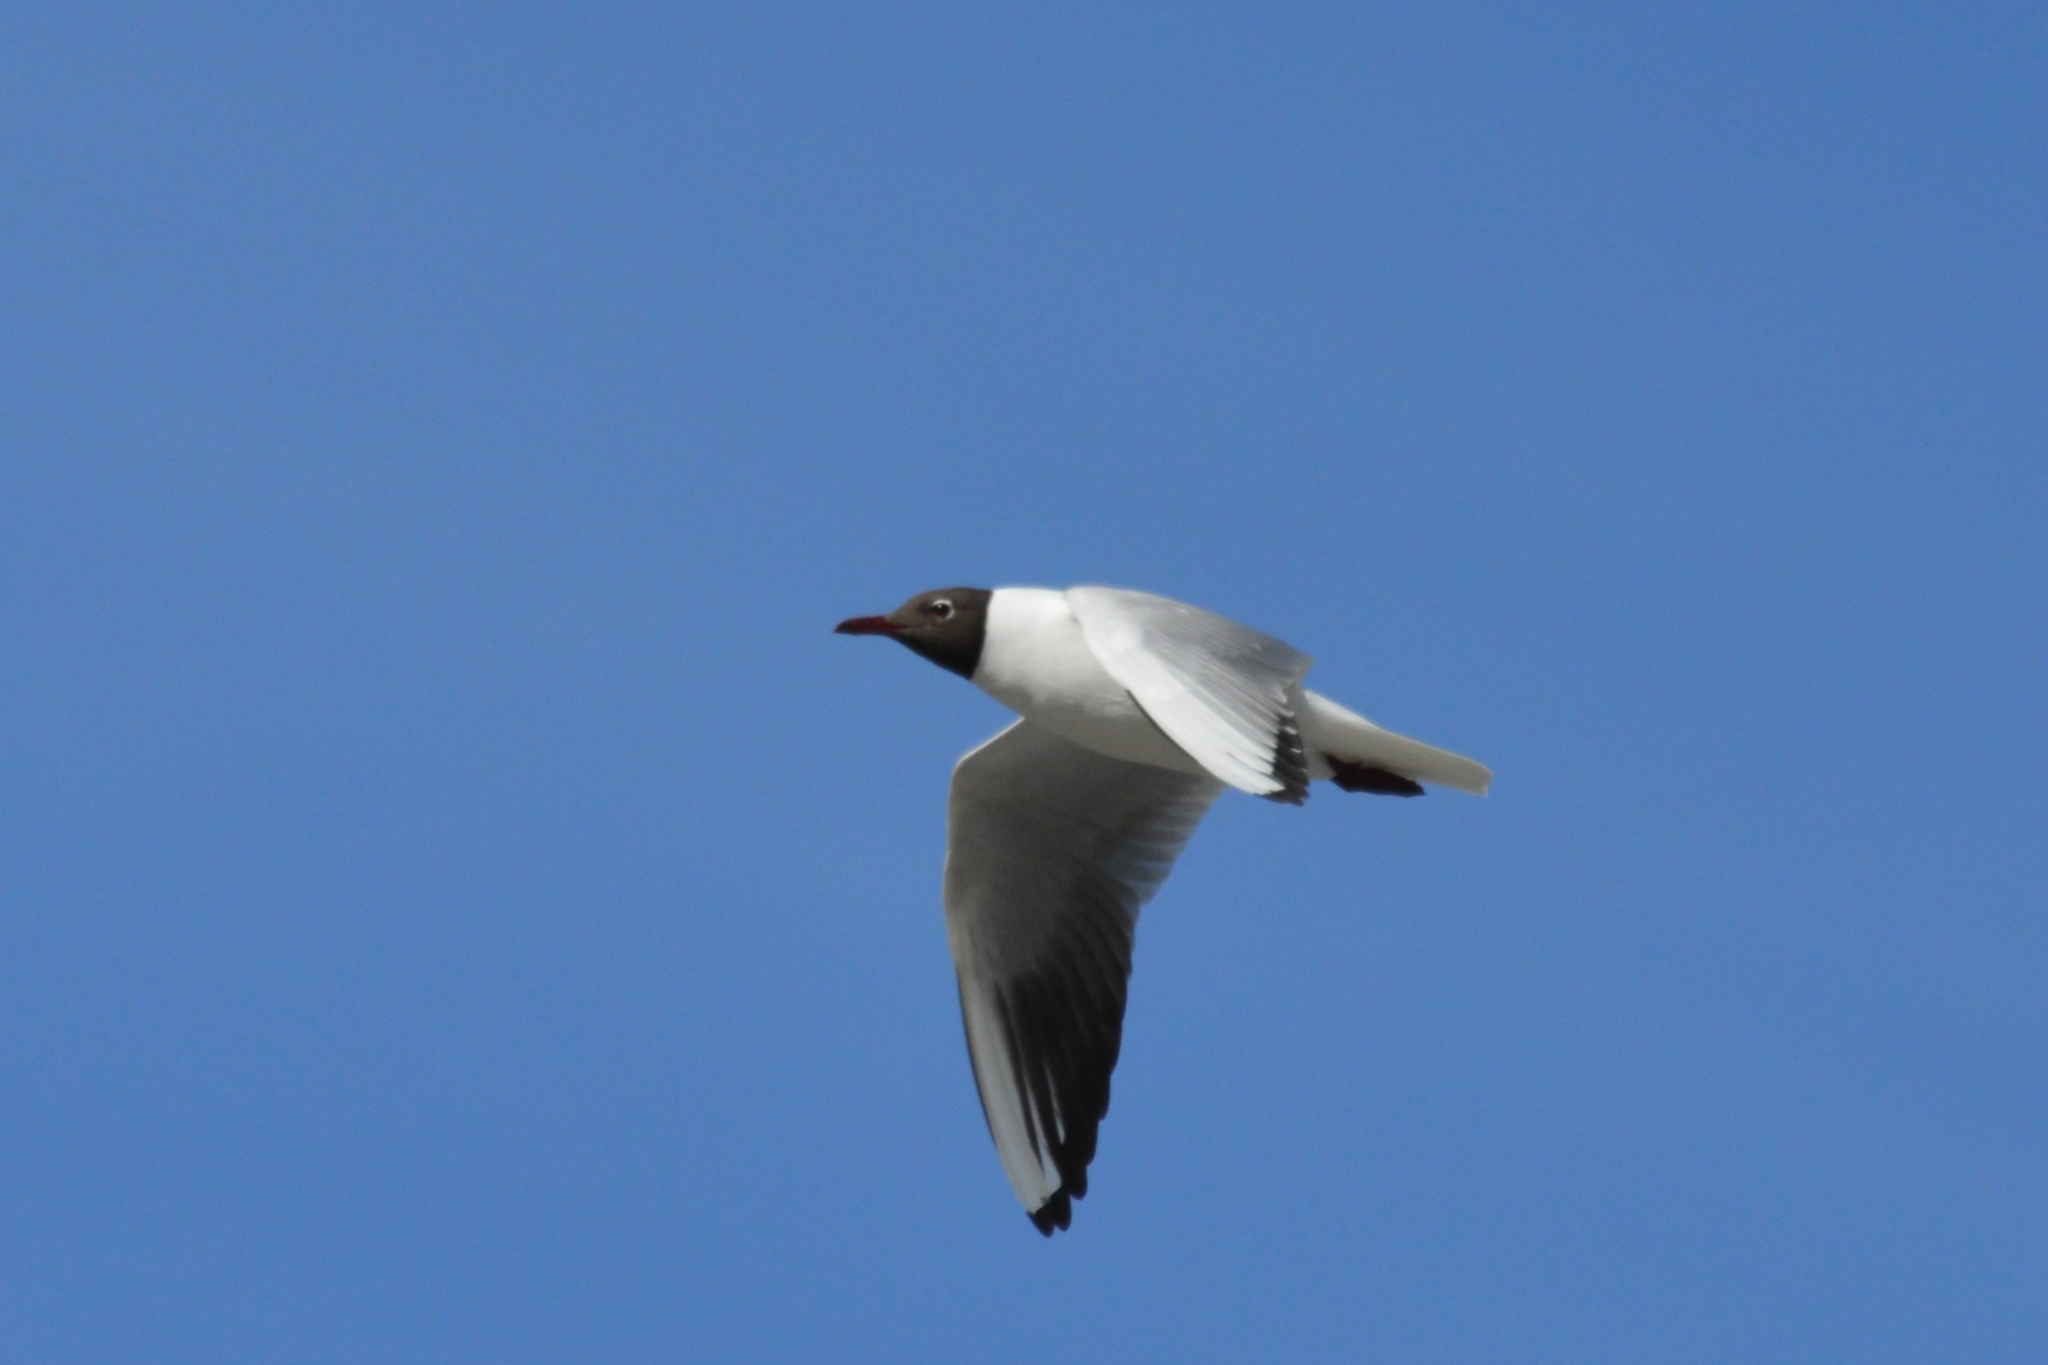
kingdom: Animalia
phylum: Chordata
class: Aves
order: Charadriiformes
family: Laridae
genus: Chroicocephalus
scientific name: Chroicocephalus ridibundus
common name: Black-headed gull
